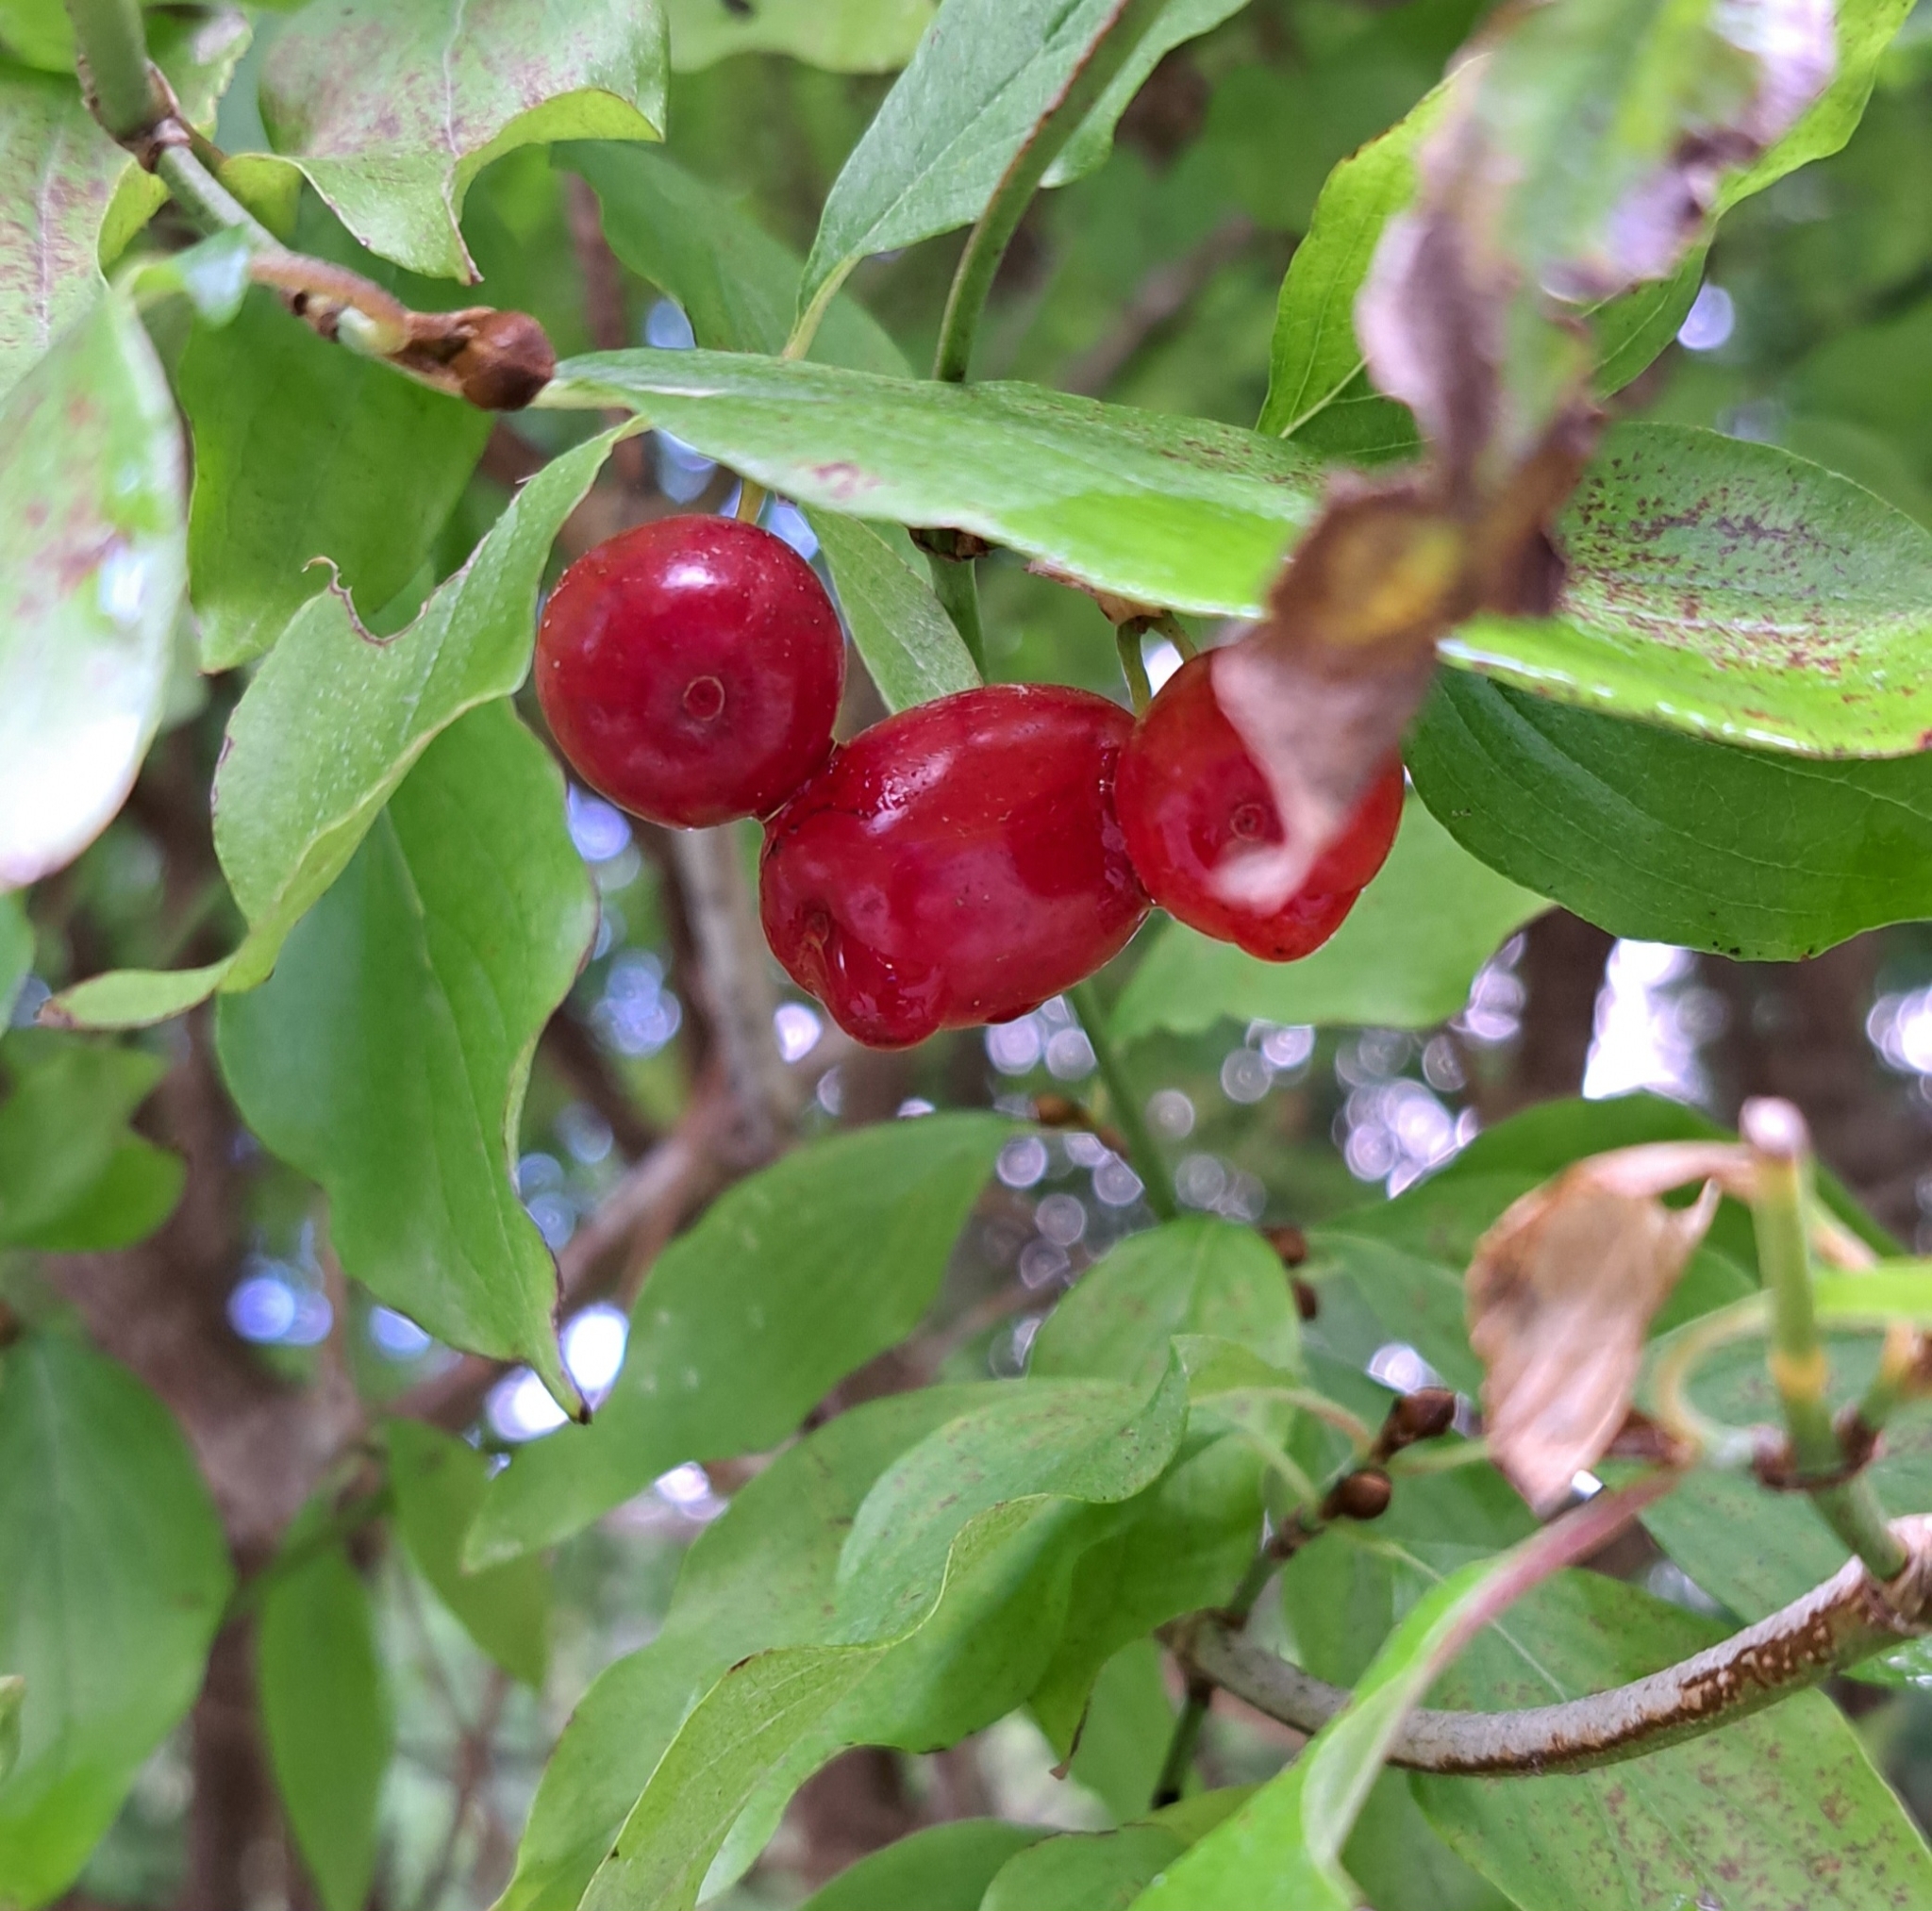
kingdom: Plantae
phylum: Tracheophyta
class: Magnoliopsida
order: Cornales
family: Cornaceae
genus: Cornus
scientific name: Cornus mas
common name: Cornelian-cherry
